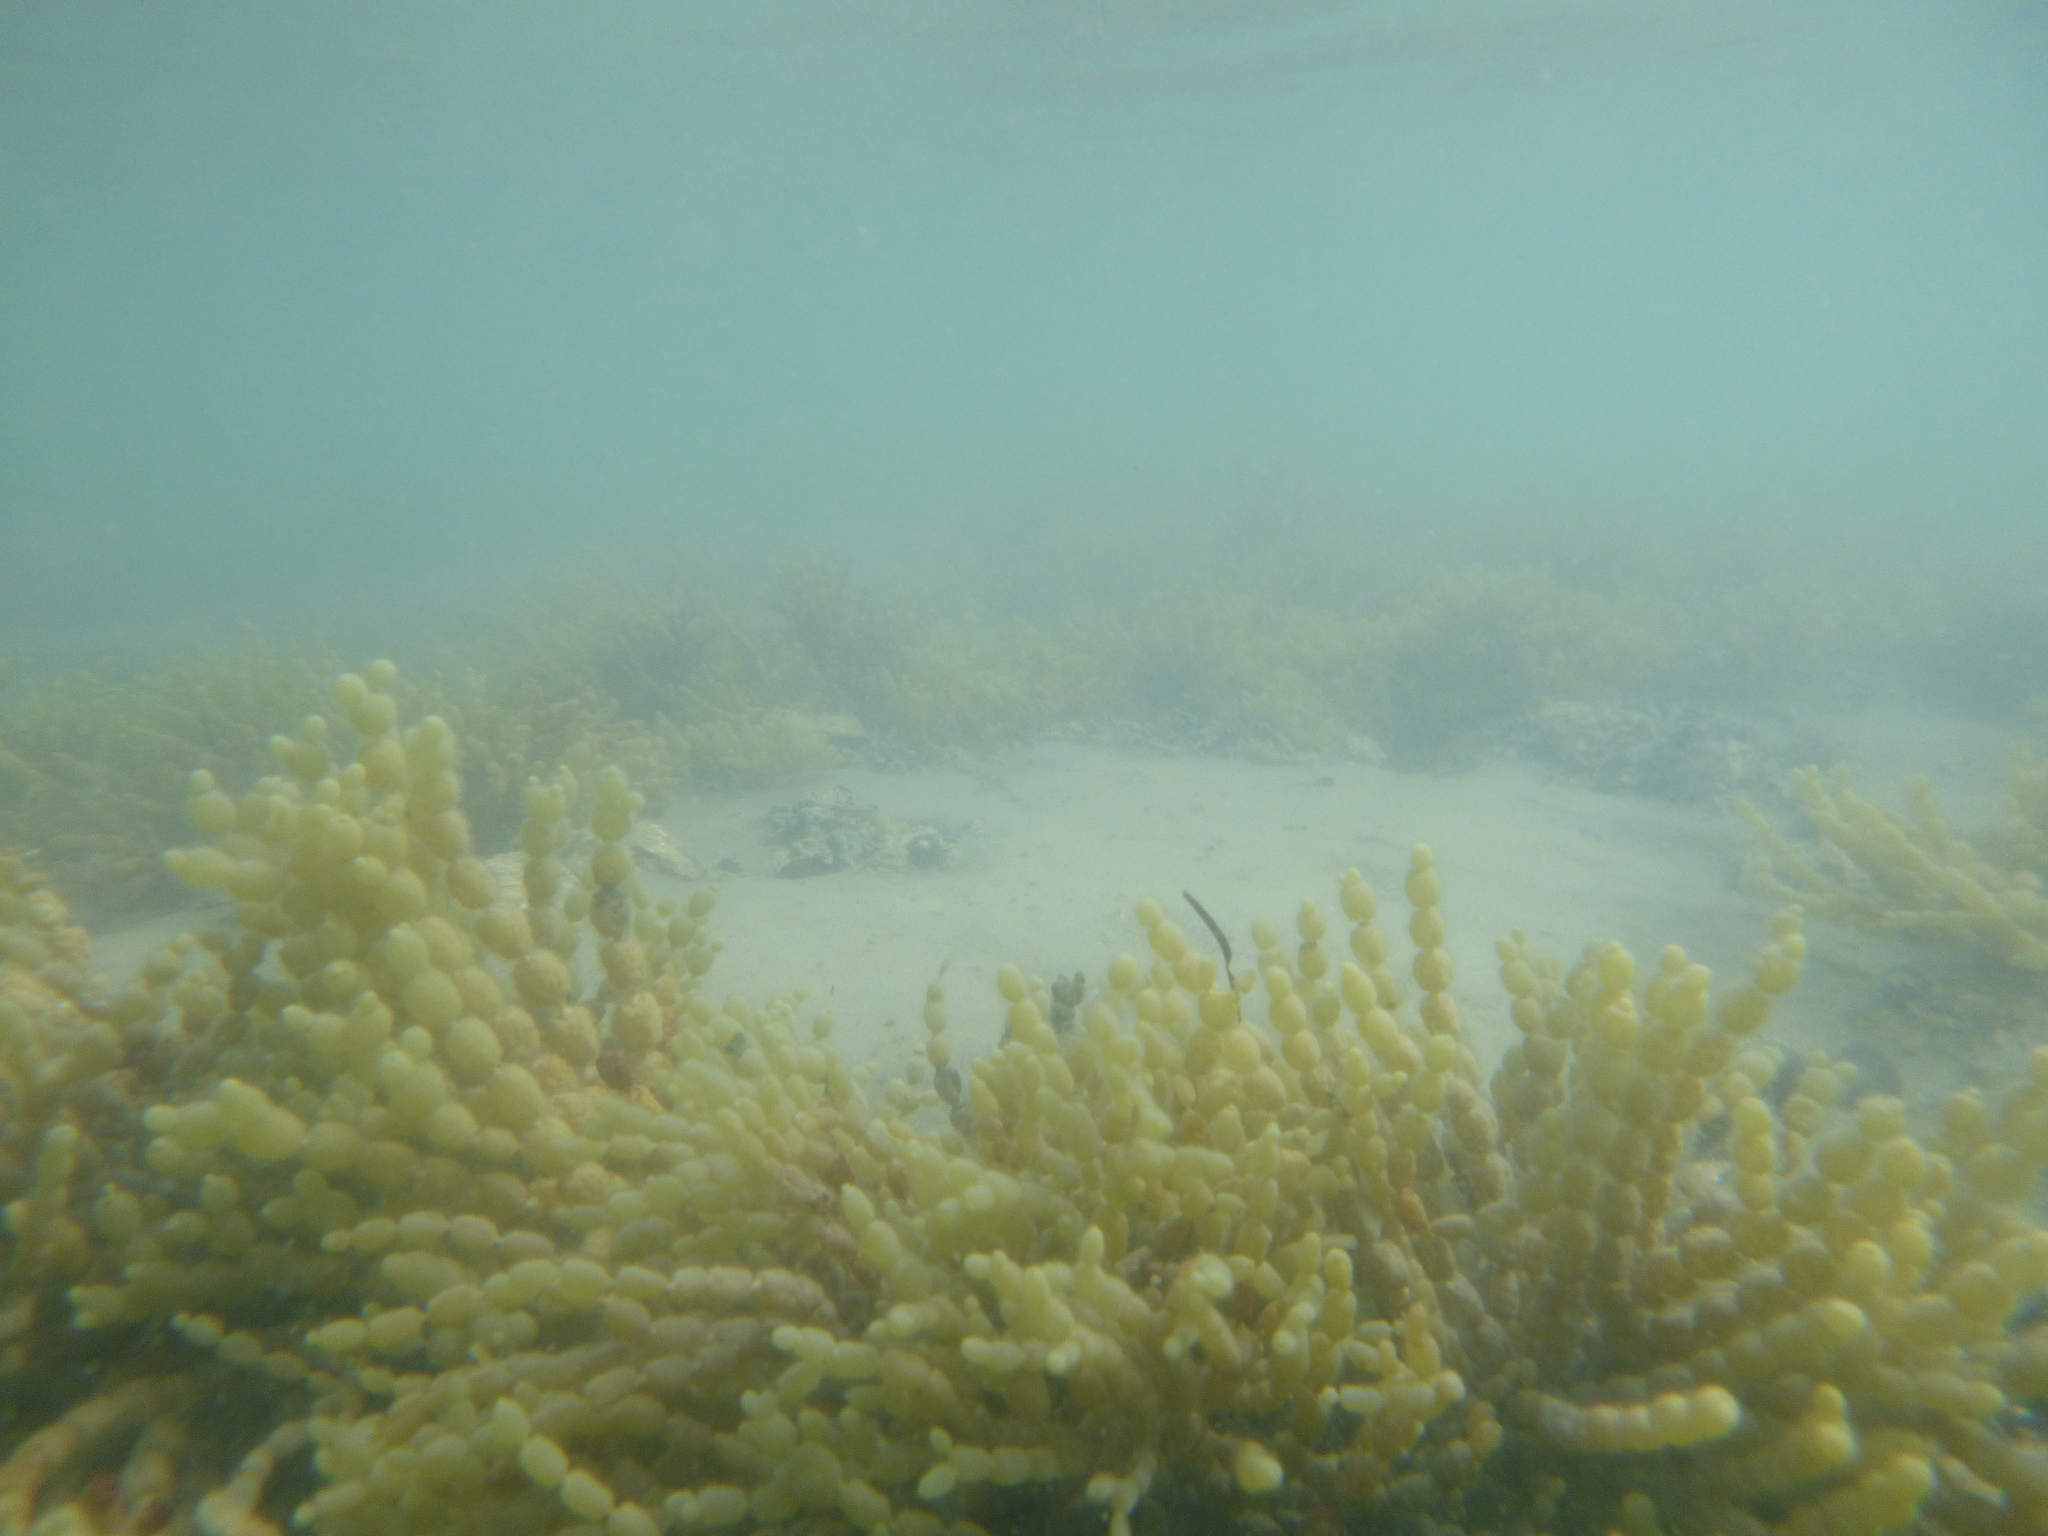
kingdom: Chromista
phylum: Ochrophyta
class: Phaeophyceae
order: Fucales
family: Hormosiraceae
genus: Hormosira
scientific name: Hormosira banksii
